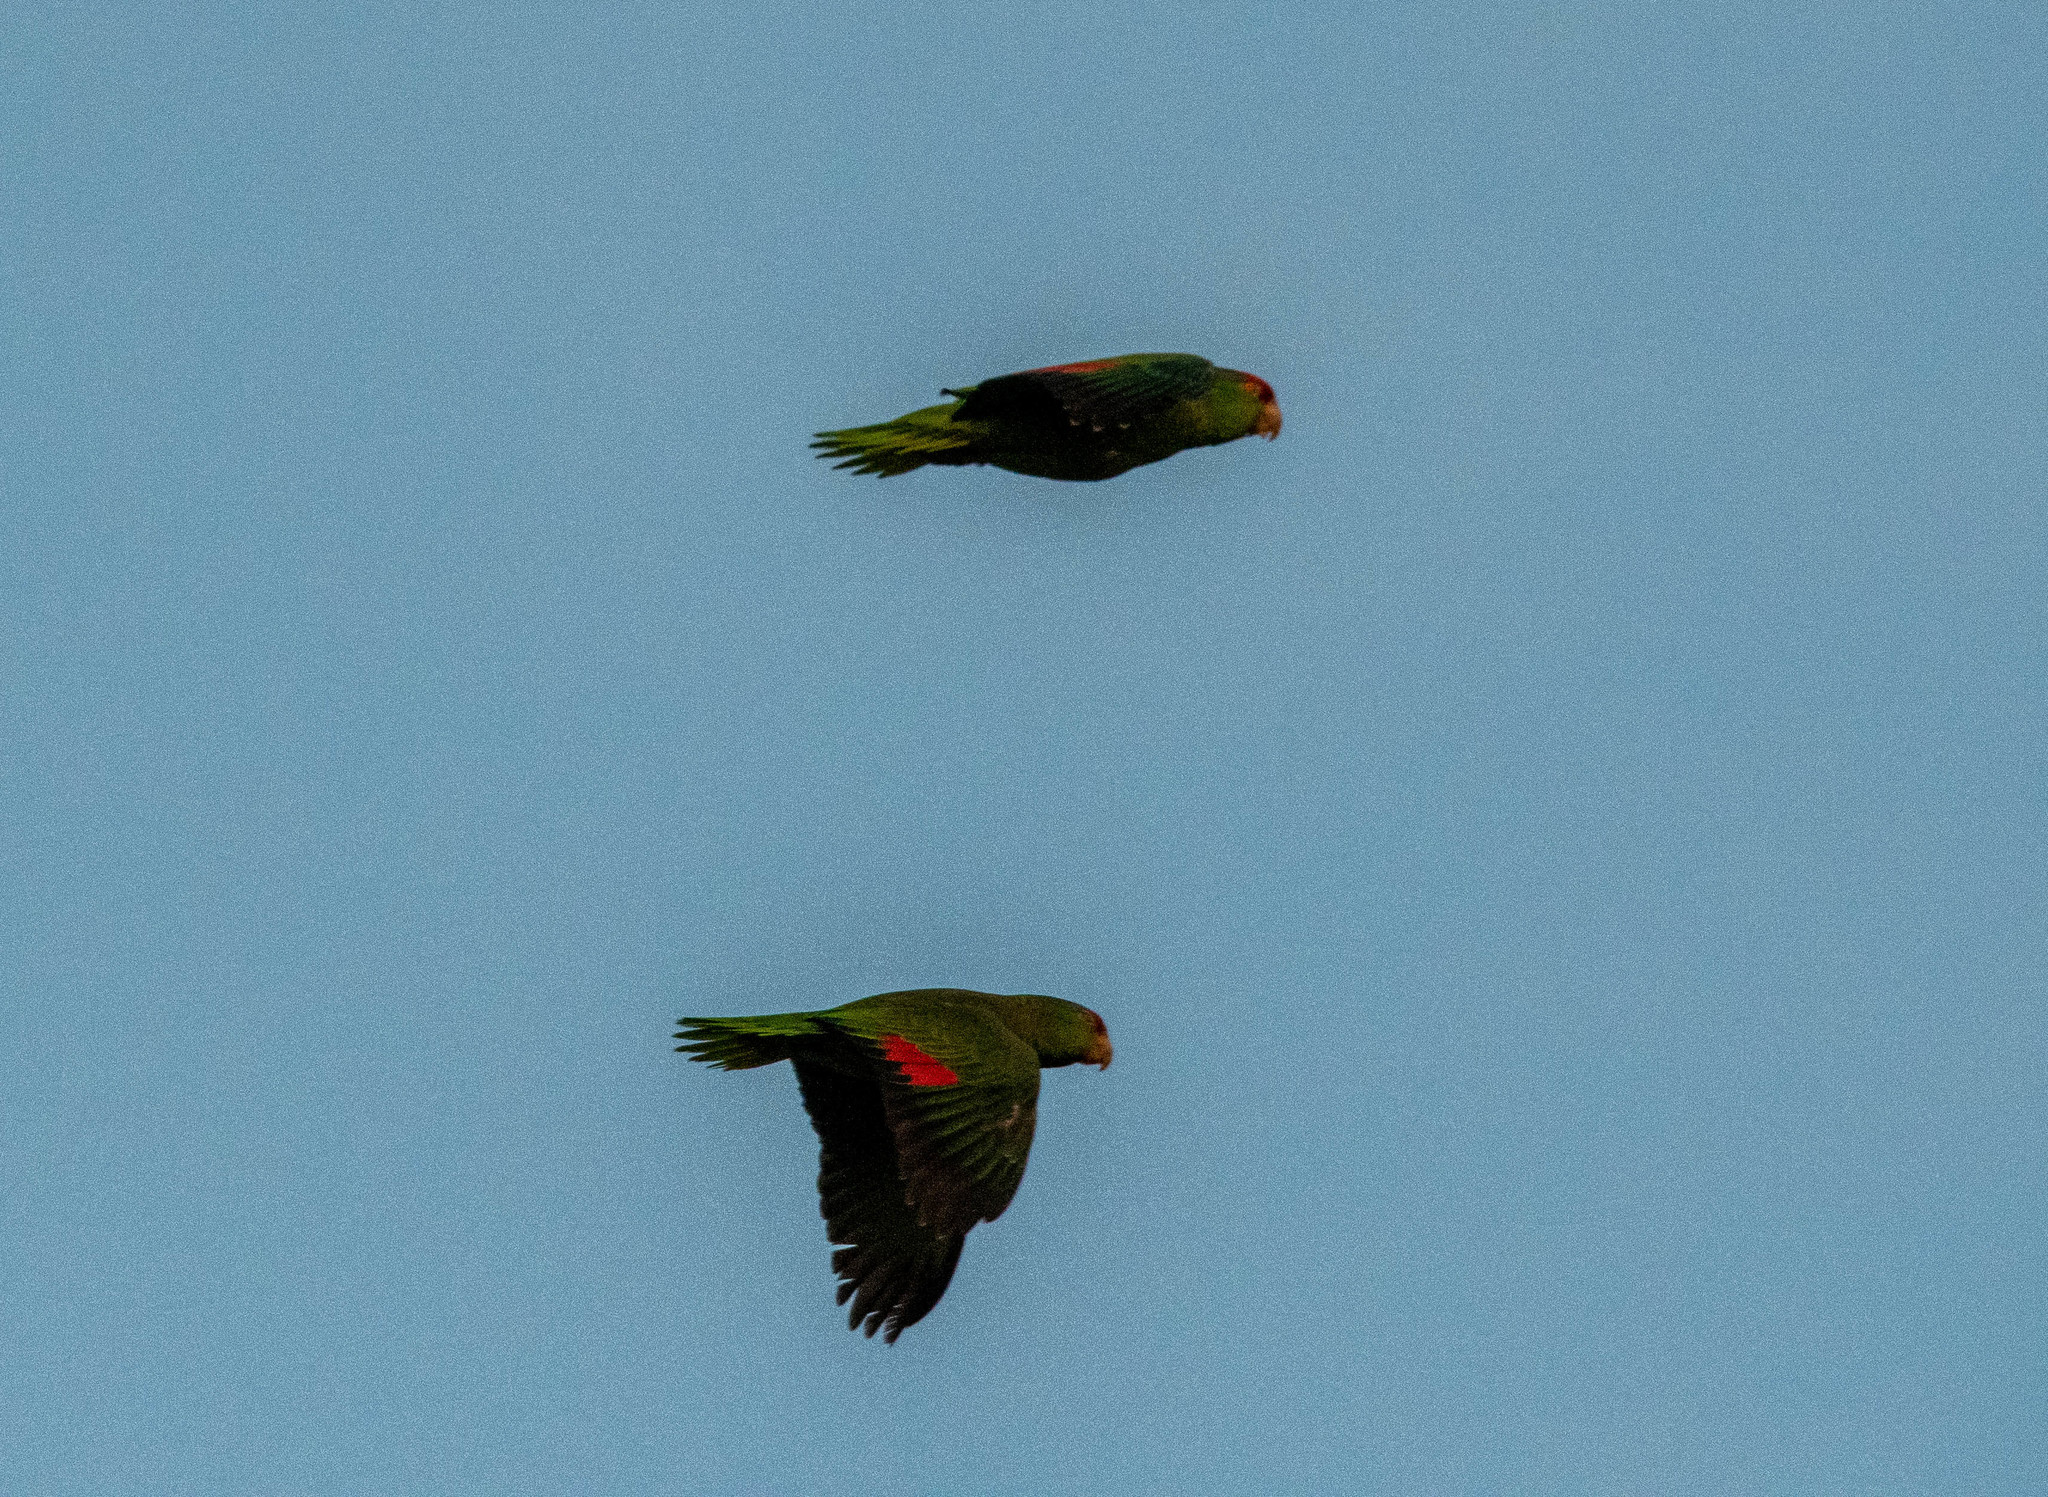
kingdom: Animalia
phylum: Chordata
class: Aves
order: Psittaciformes
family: Psittacidae
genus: Amazona
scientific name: Amazona viridigenalis
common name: Red-crowned amazon
